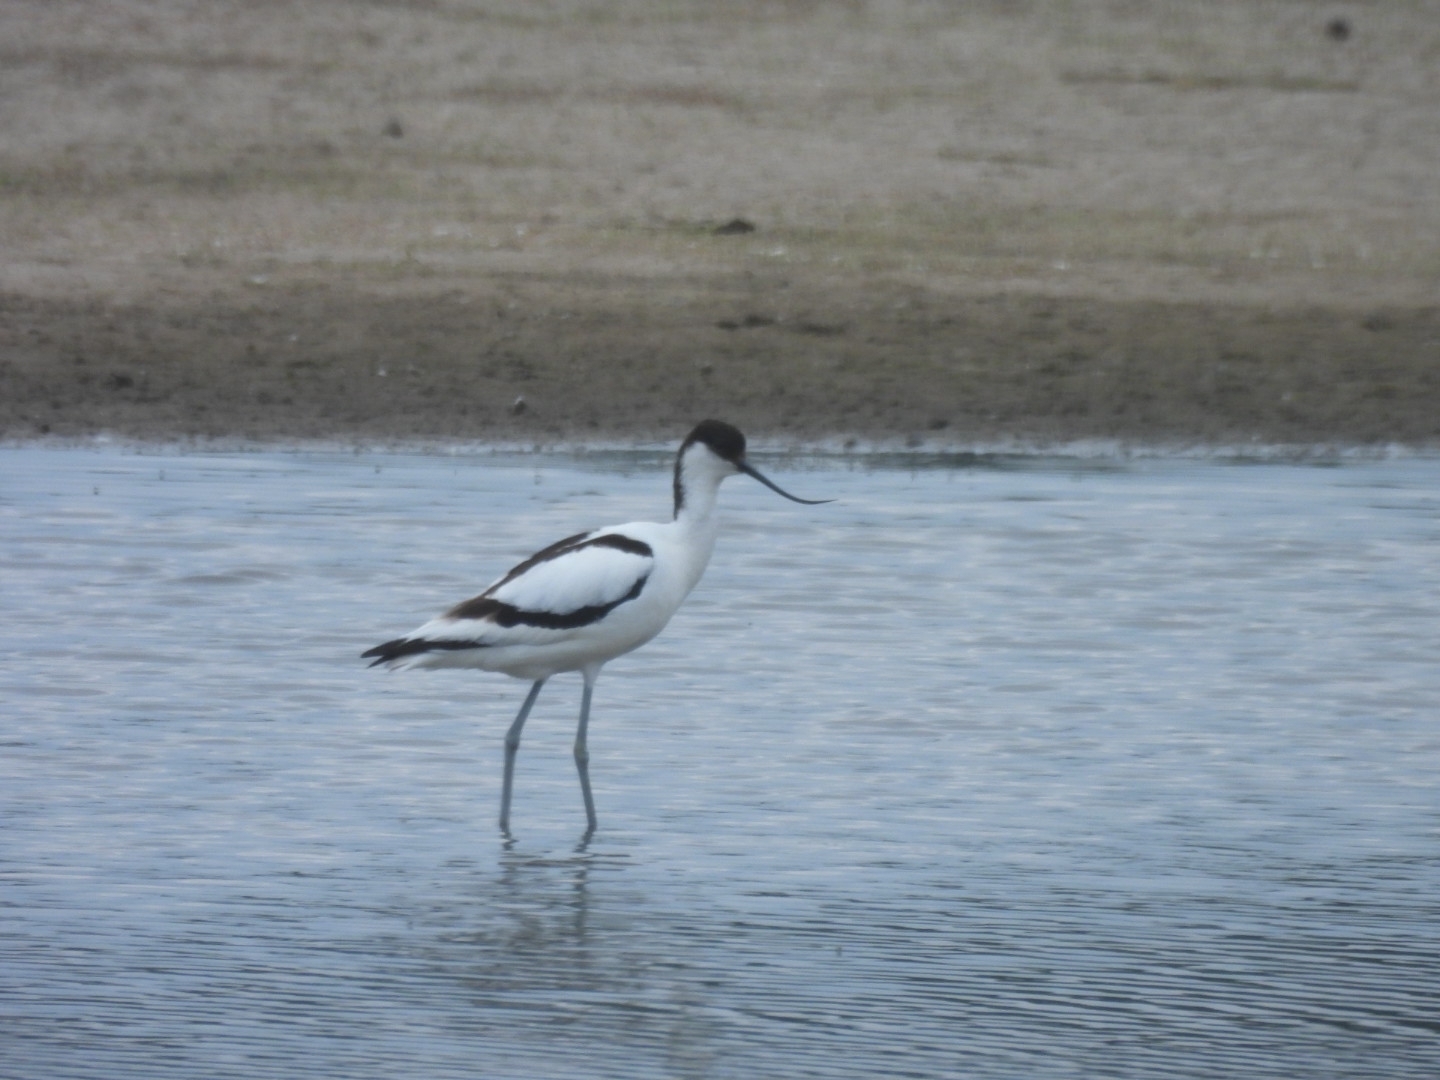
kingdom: Animalia
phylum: Chordata
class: Aves
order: Charadriiformes
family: Recurvirostridae
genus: Recurvirostra
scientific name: Recurvirostra avosetta
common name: Pied avocet
